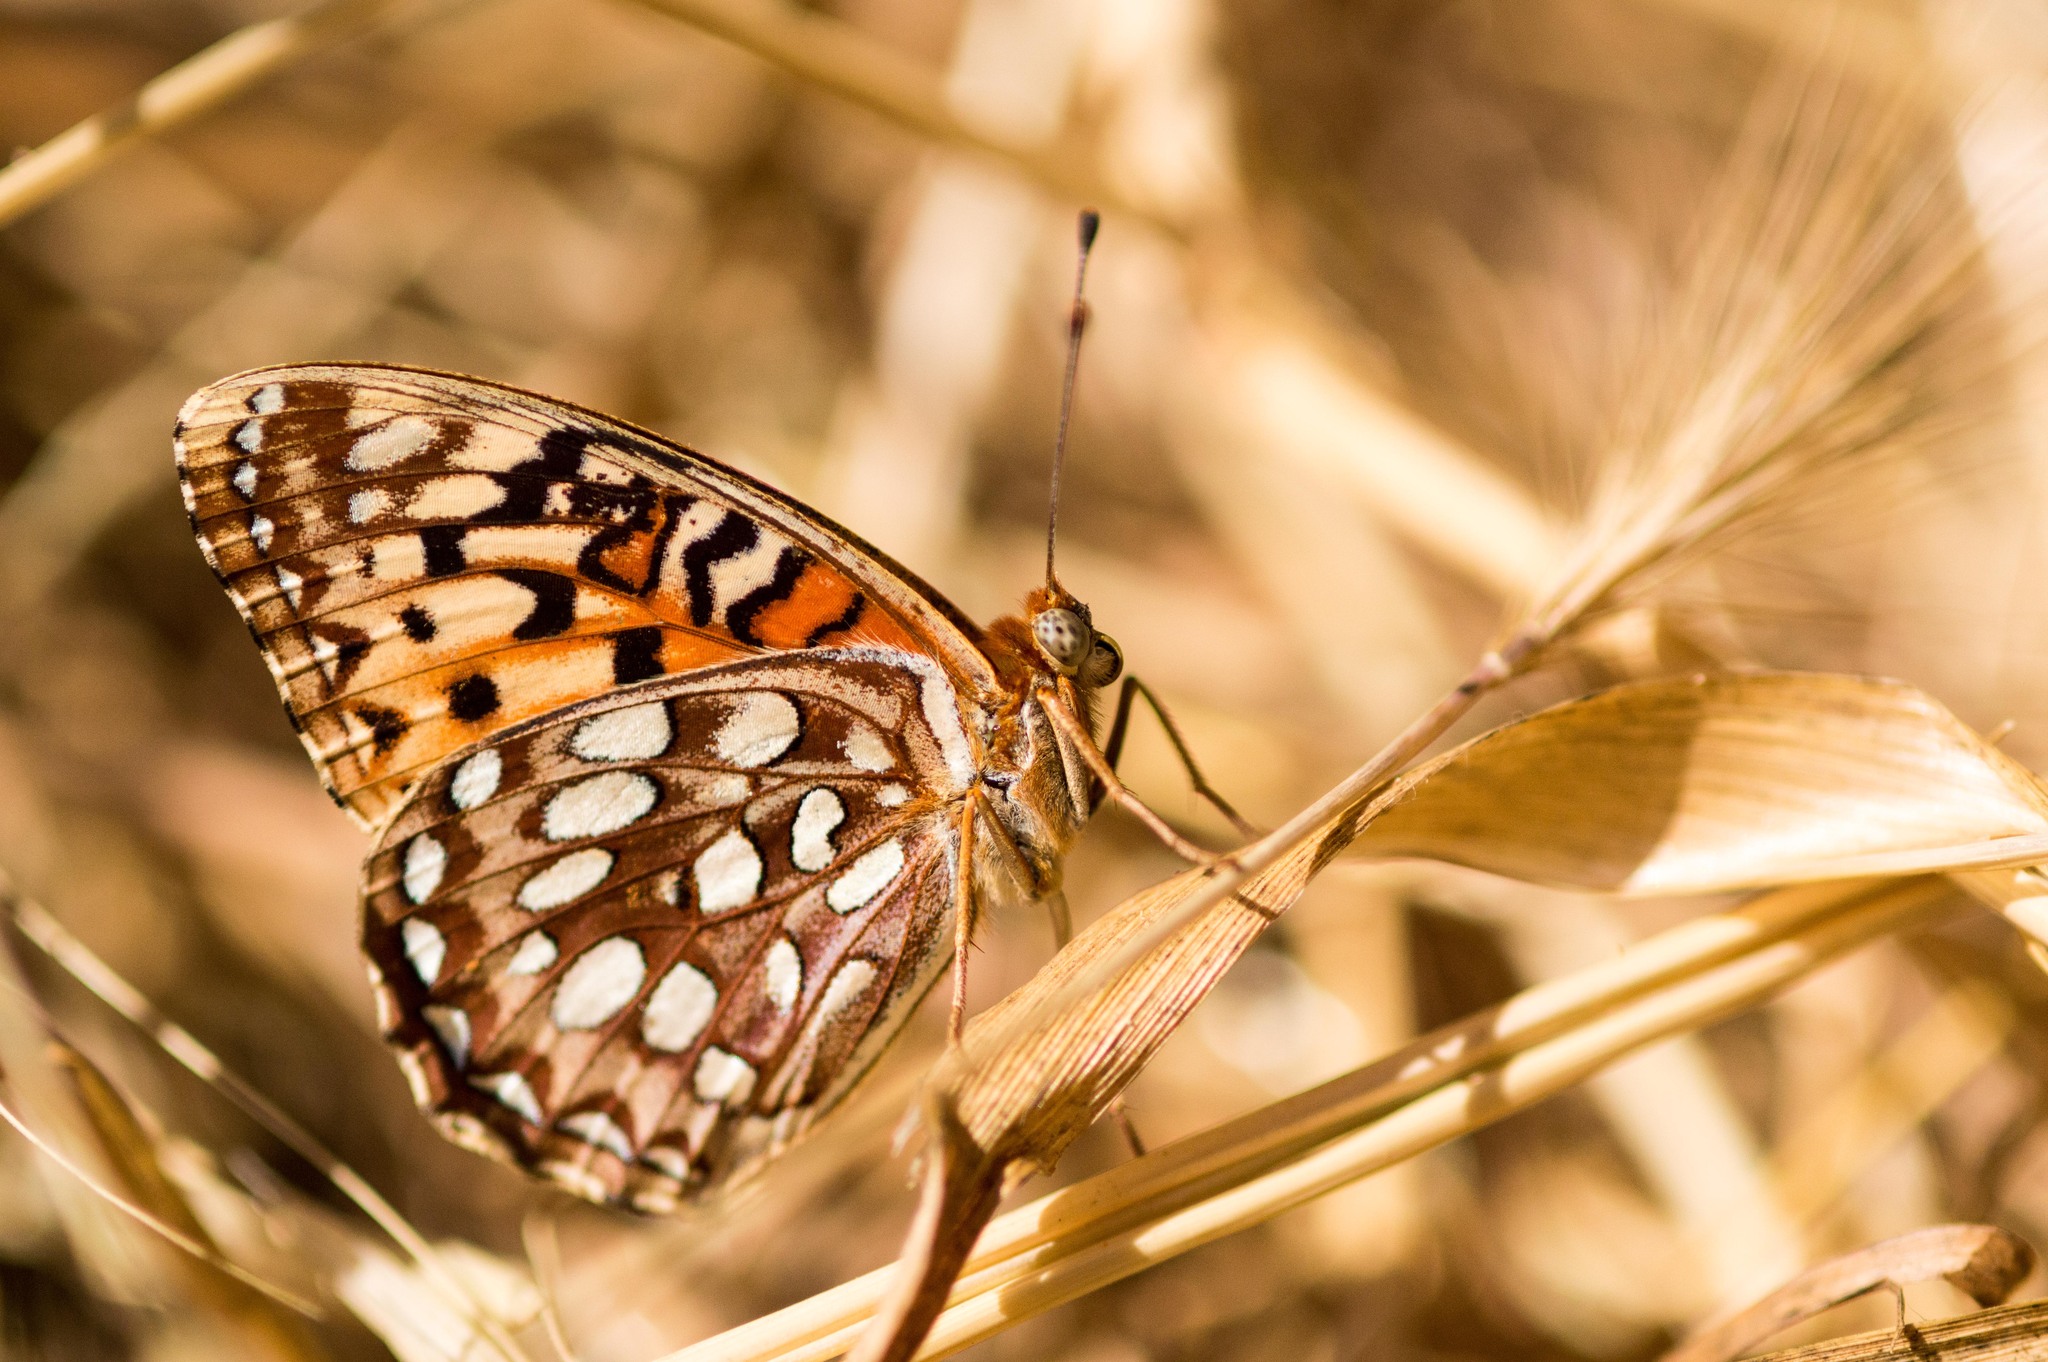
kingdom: Animalia
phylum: Arthropoda
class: Insecta
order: Lepidoptera
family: Nymphalidae
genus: Argynnis
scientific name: Argynnis coronis
